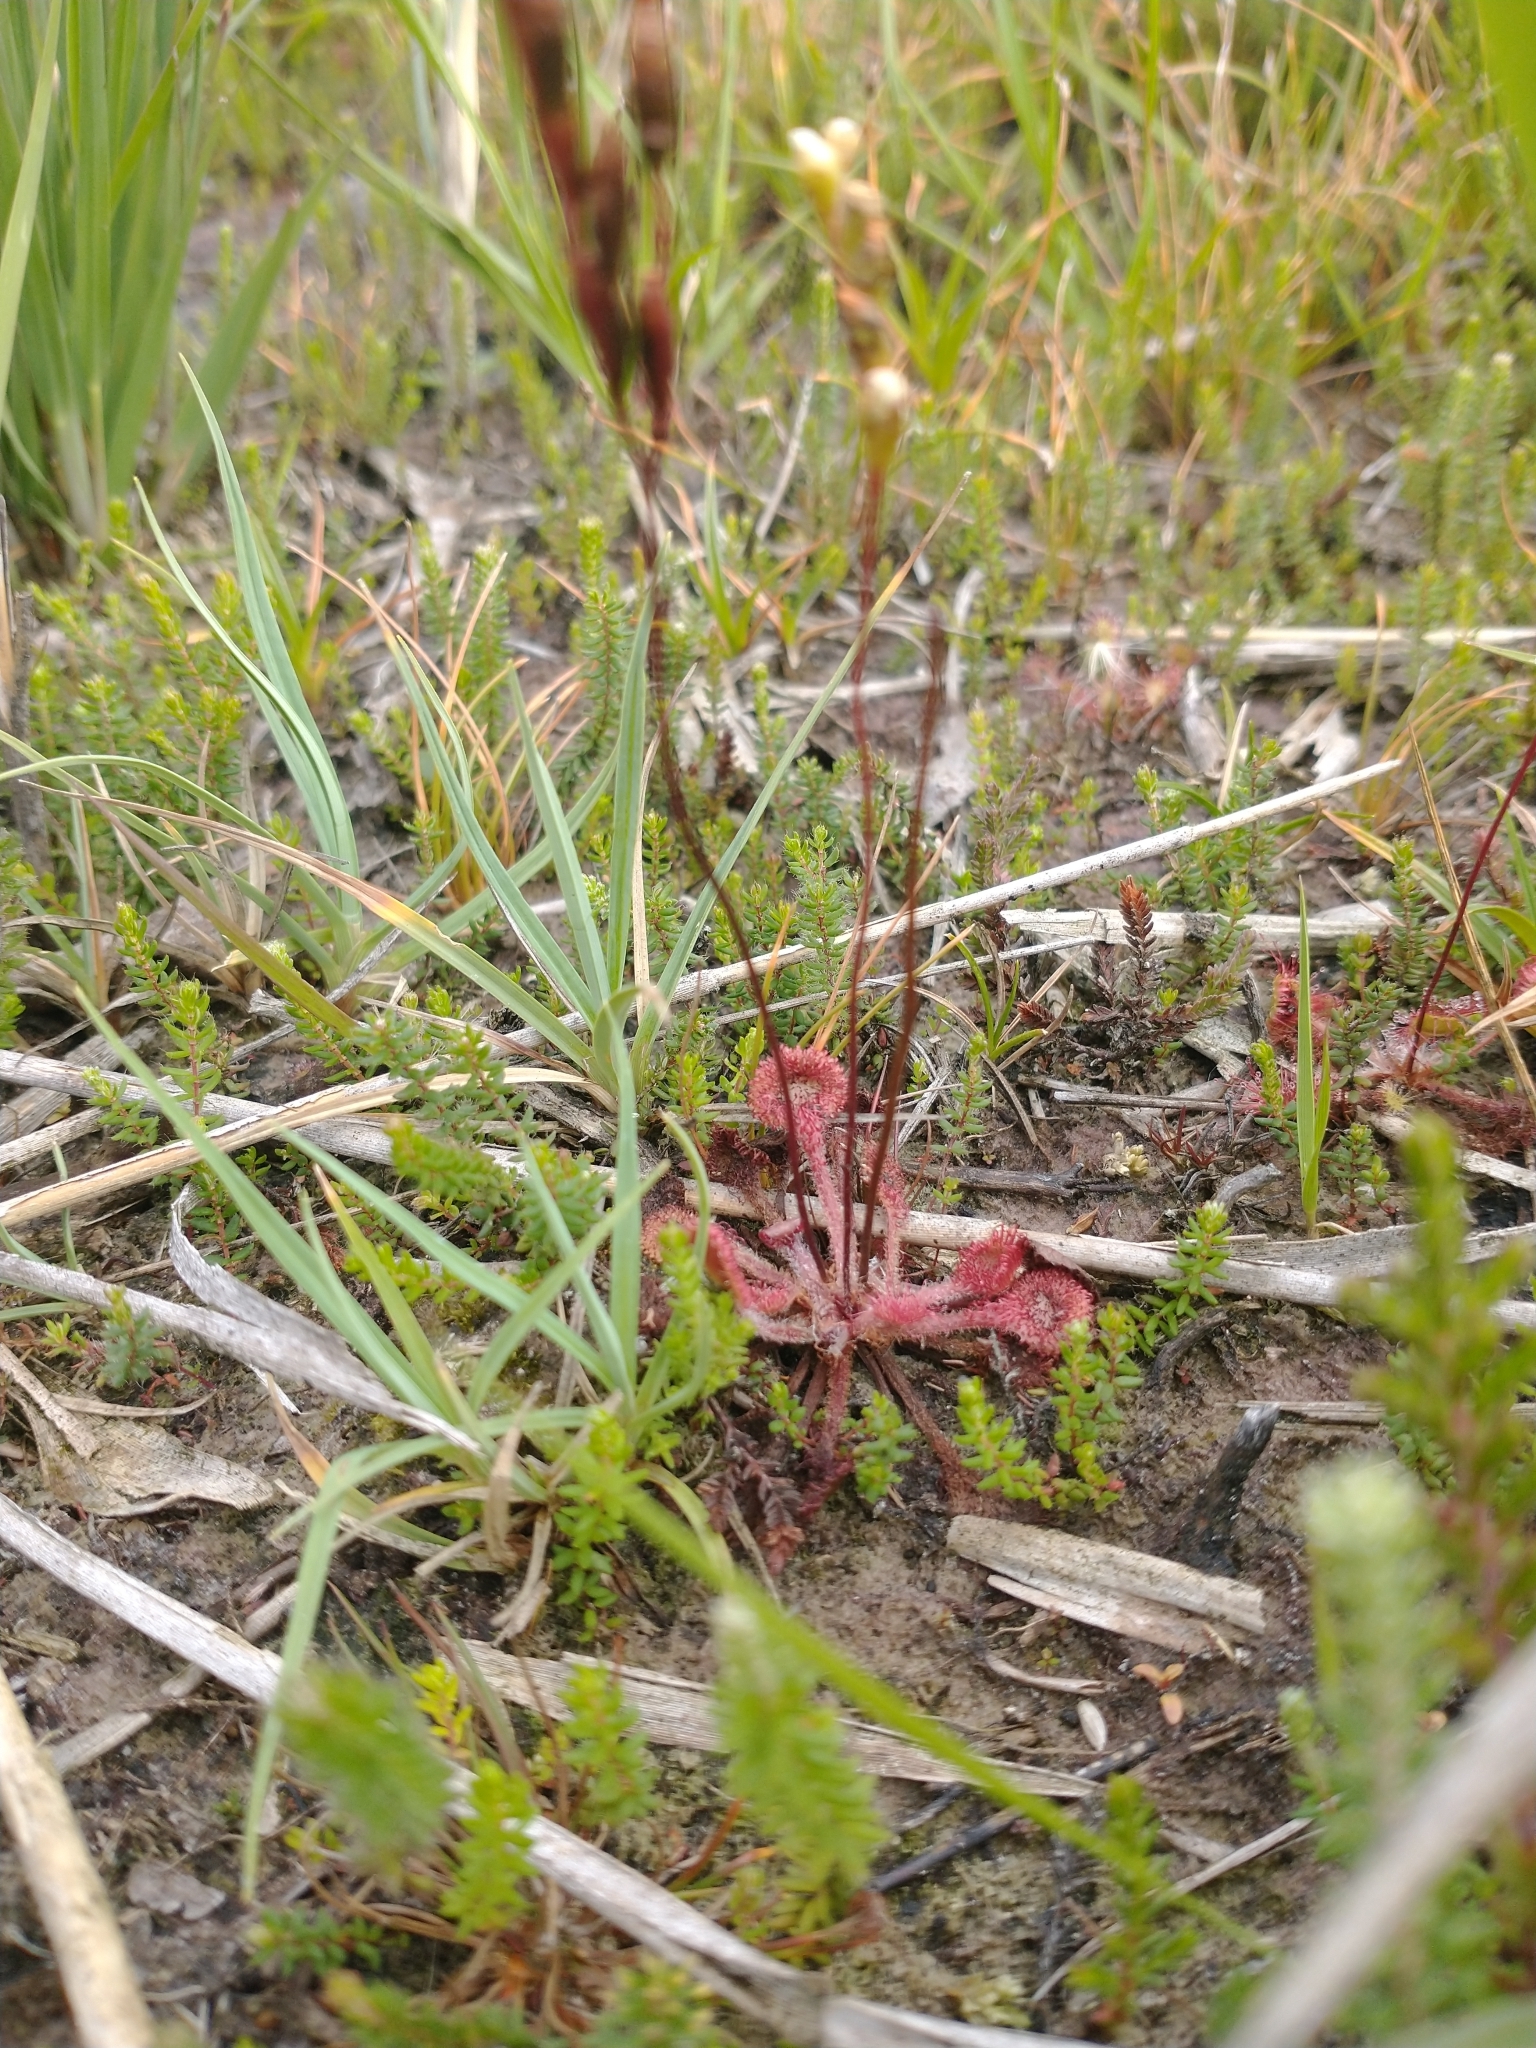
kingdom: Plantae
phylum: Tracheophyta
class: Magnoliopsida
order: Caryophyllales
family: Droseraceae
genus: Drosera
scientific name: Drosera rotundifolia
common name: Round-leaved sundew
